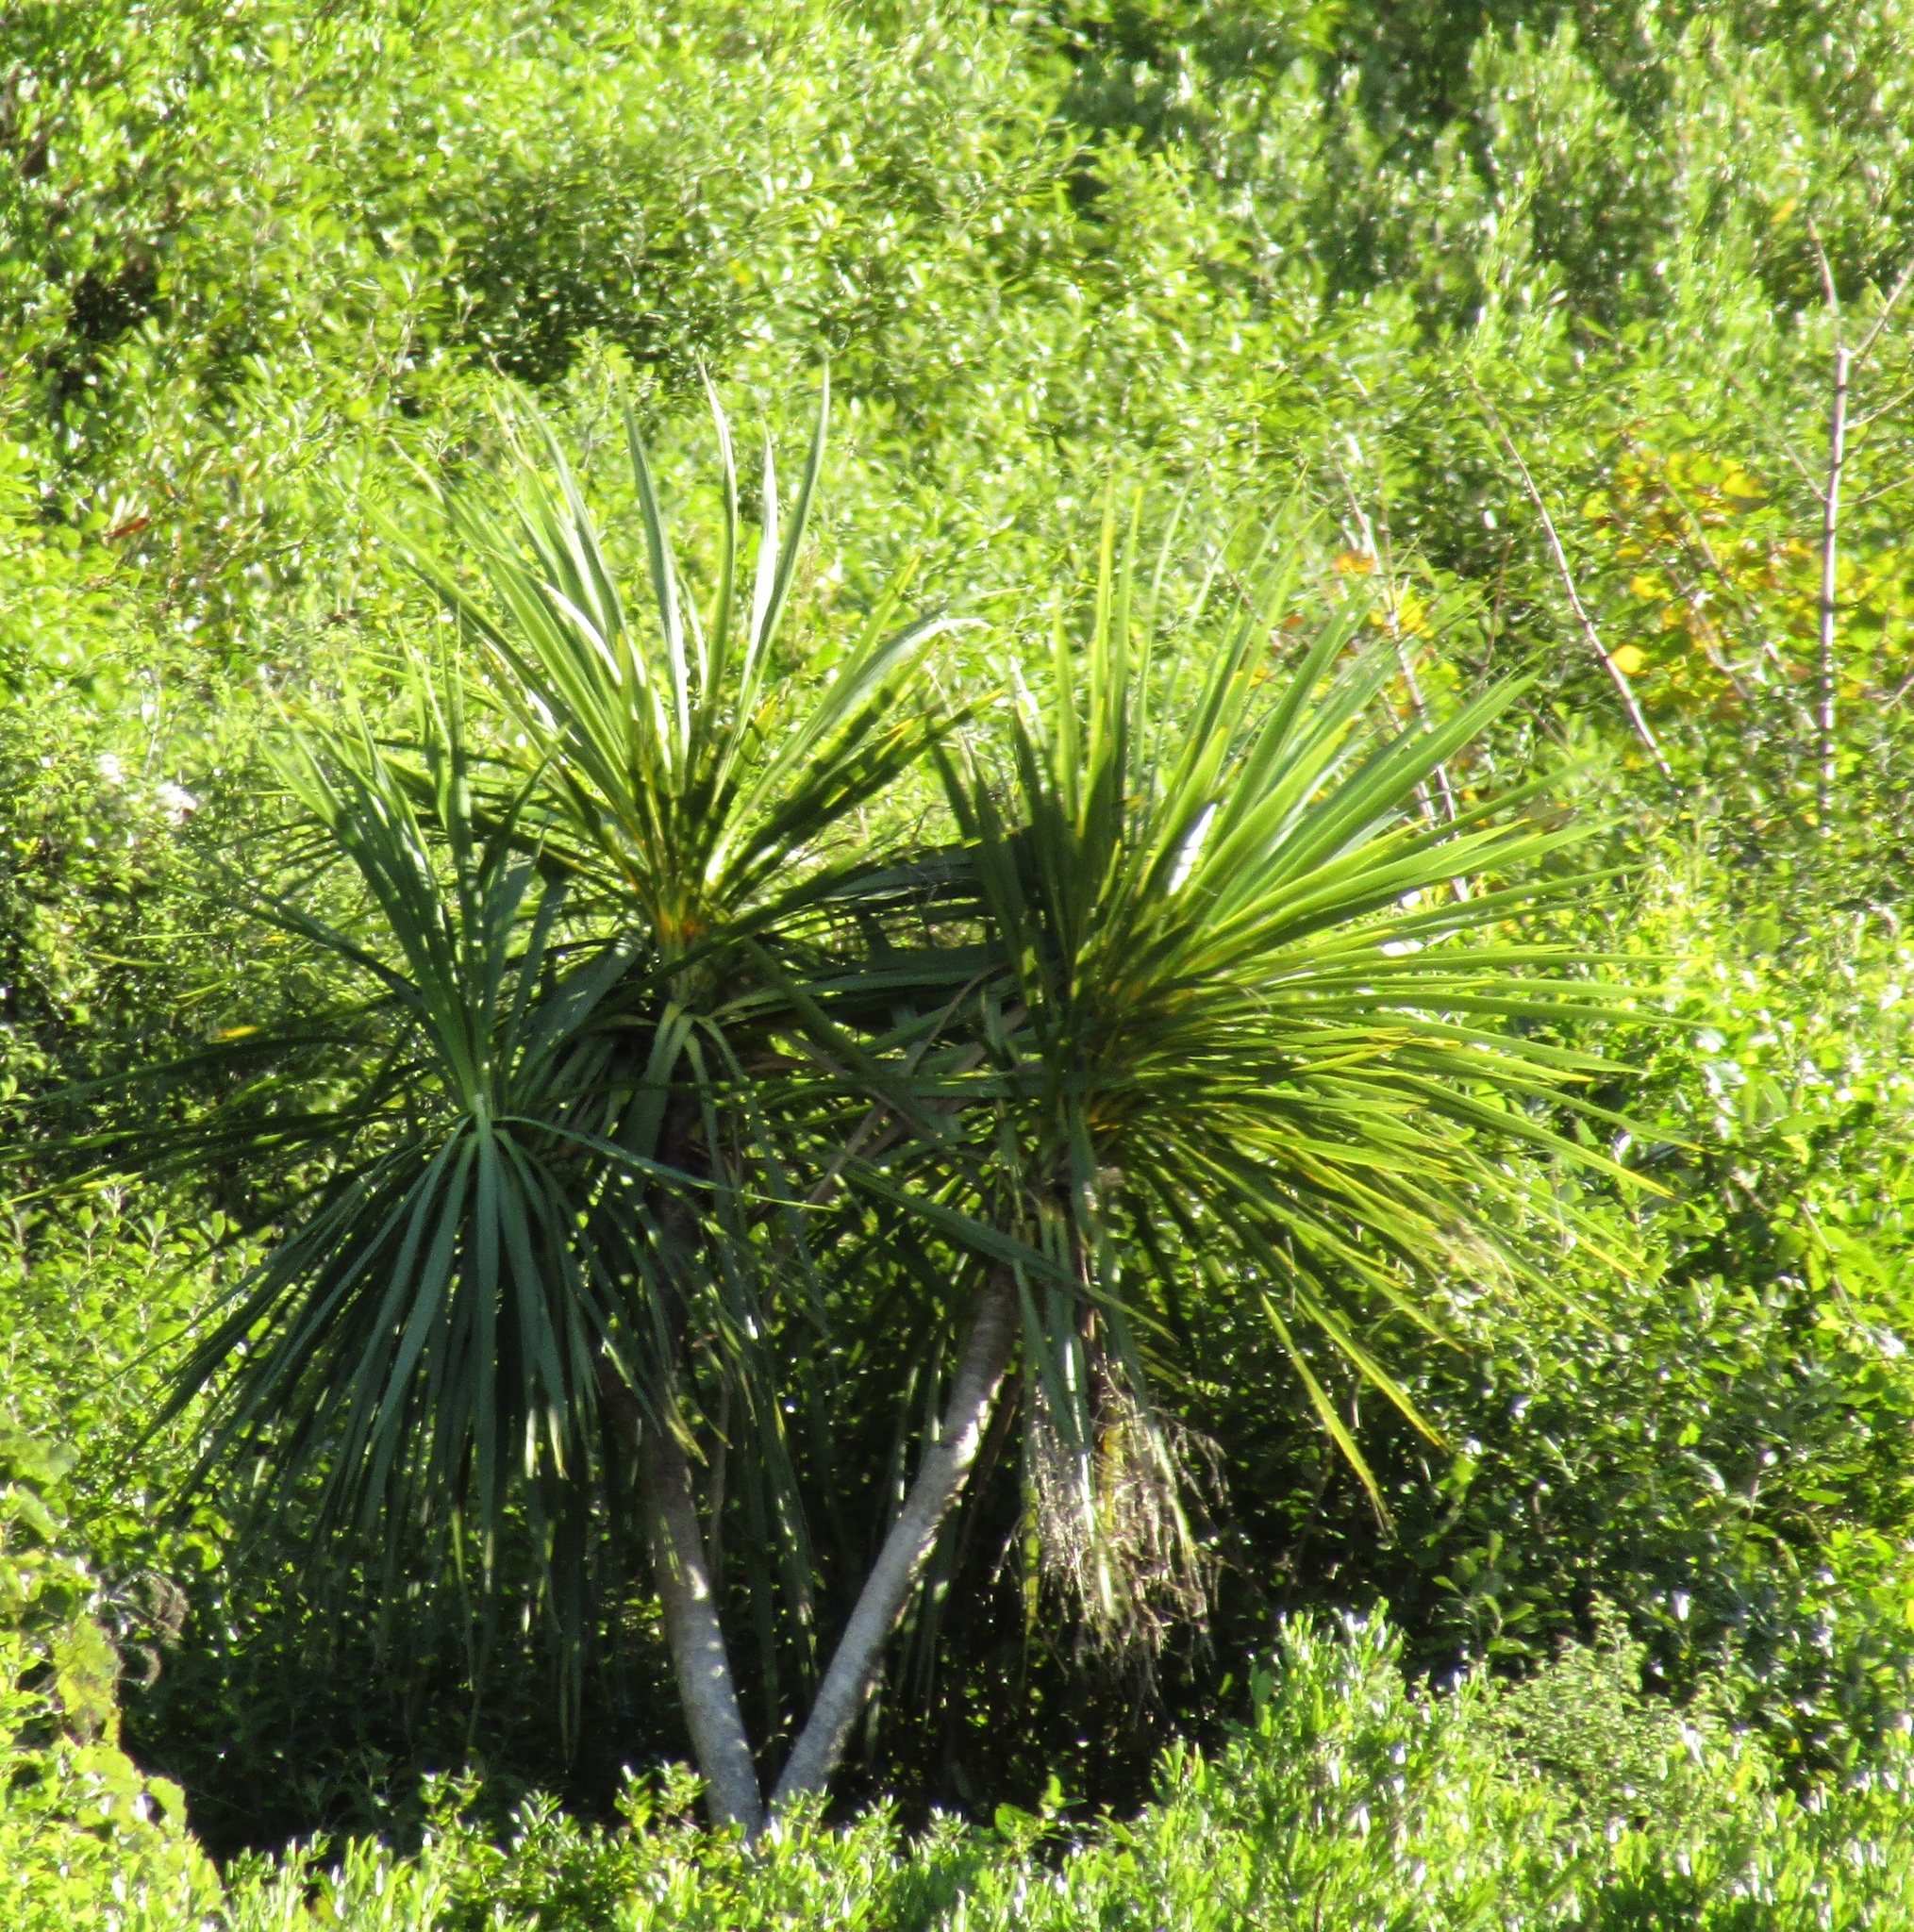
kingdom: Plantae
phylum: Tracheophyta
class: Liliopsida
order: Asparagales
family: Asparagaceae
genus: Cordyline
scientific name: Cordyline australis
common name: Cabbage-palm
